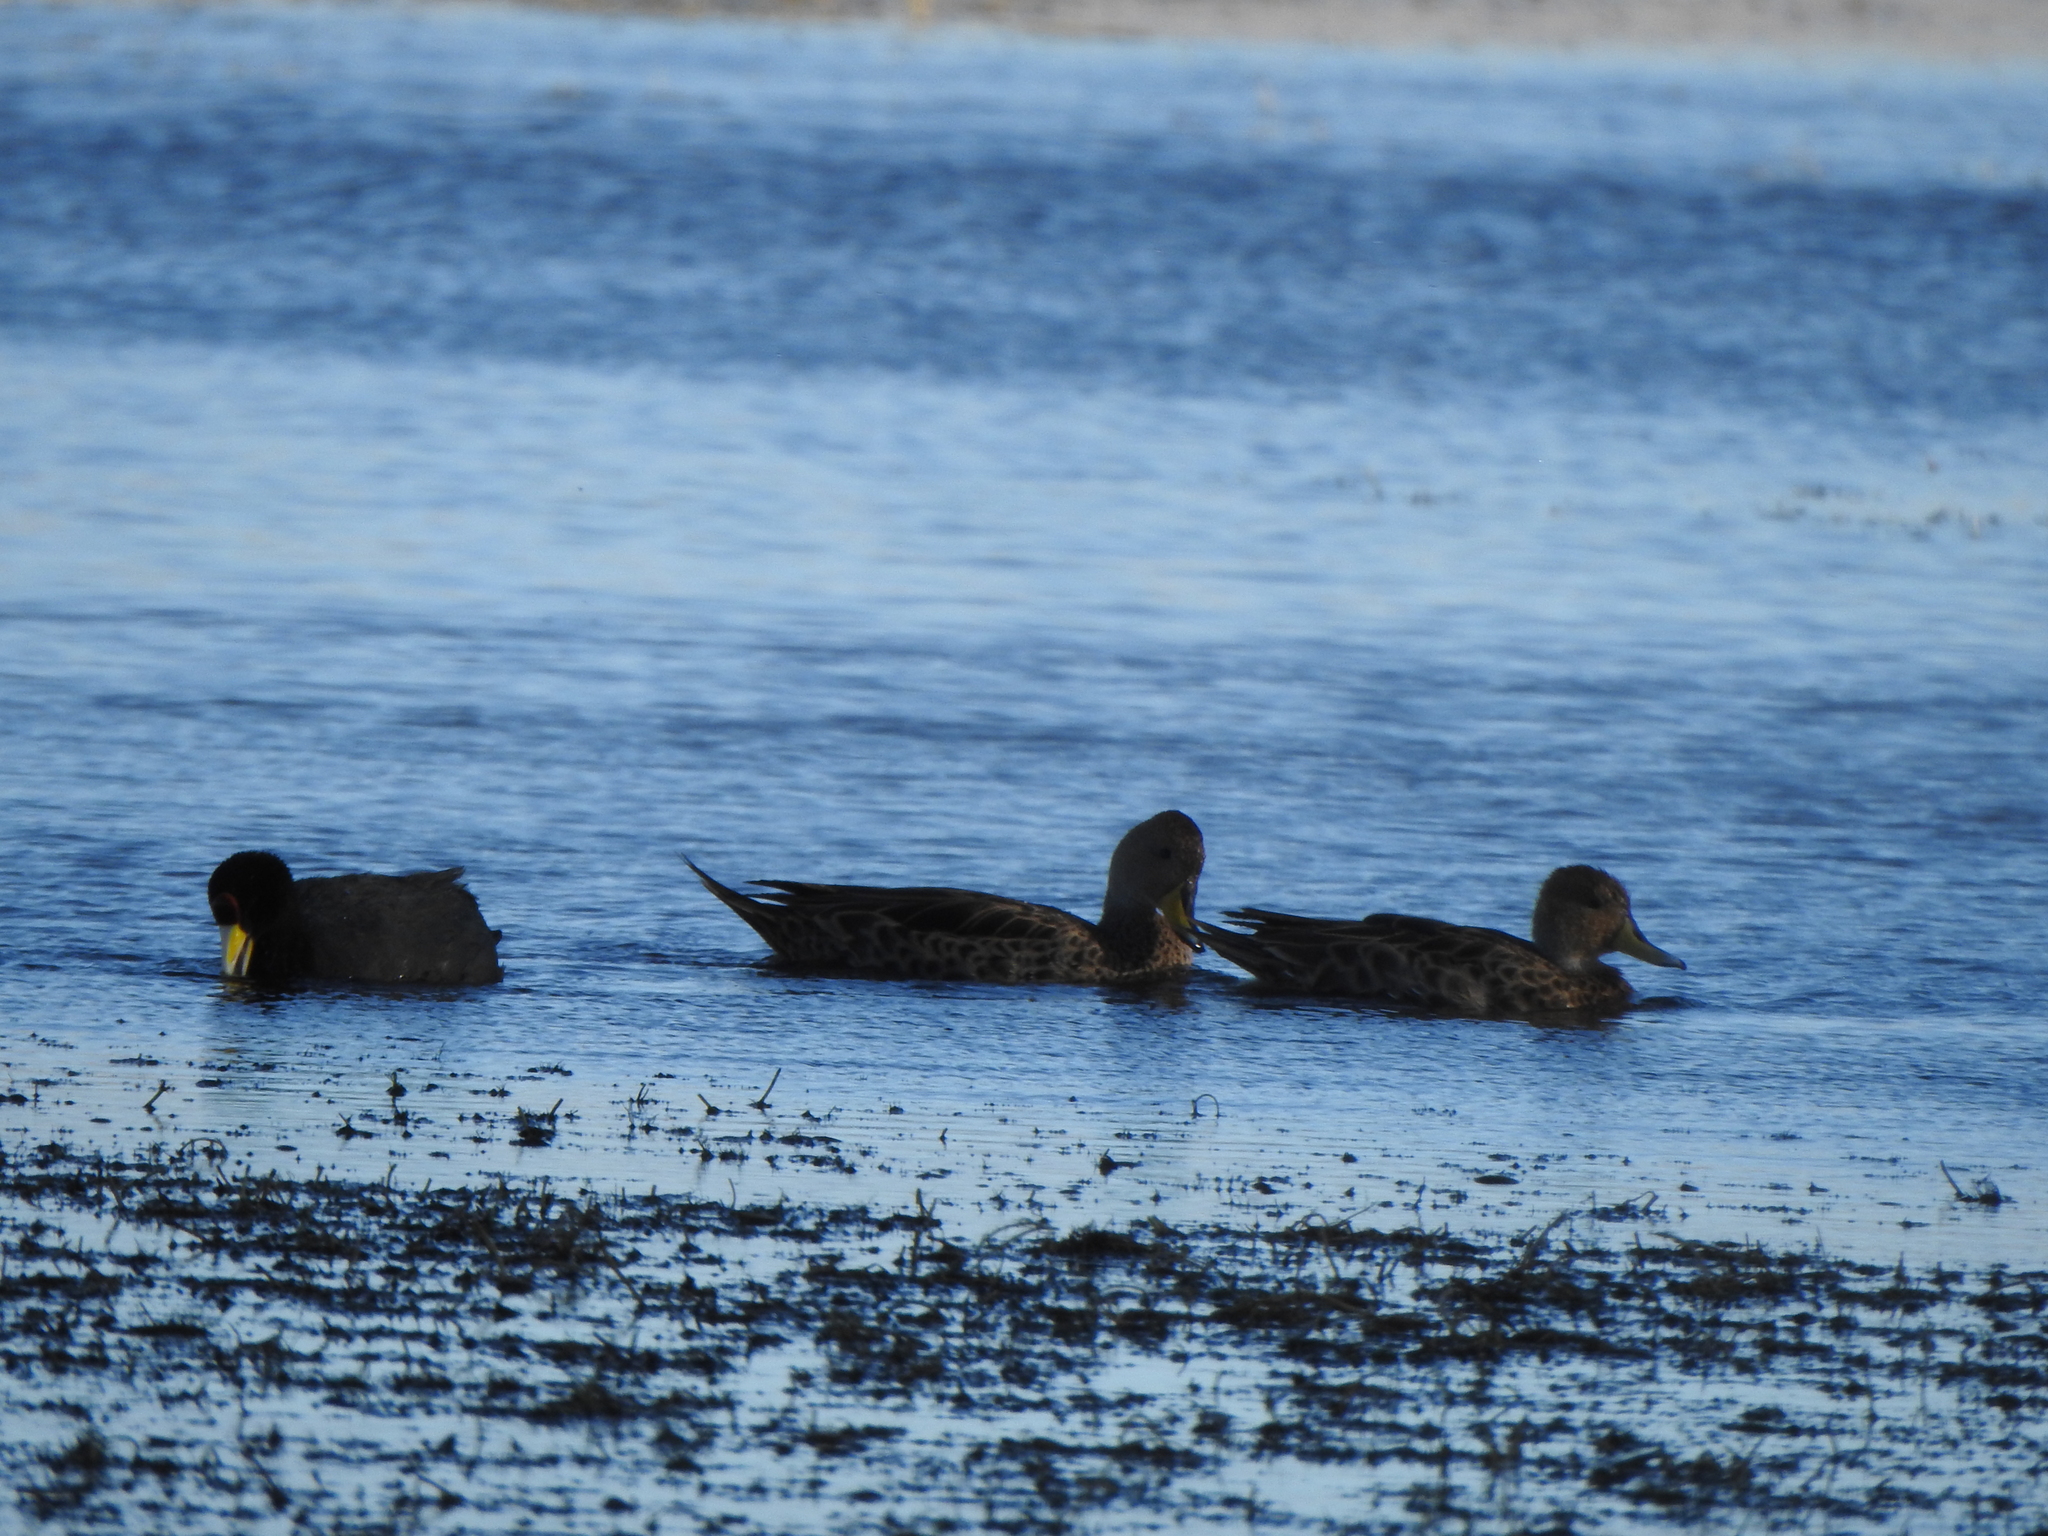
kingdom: Animalia
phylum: Chordata
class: Aves
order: Anseriformes
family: Anatidae
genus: Anas
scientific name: Anas georgica
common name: Yellow-billed pintail
